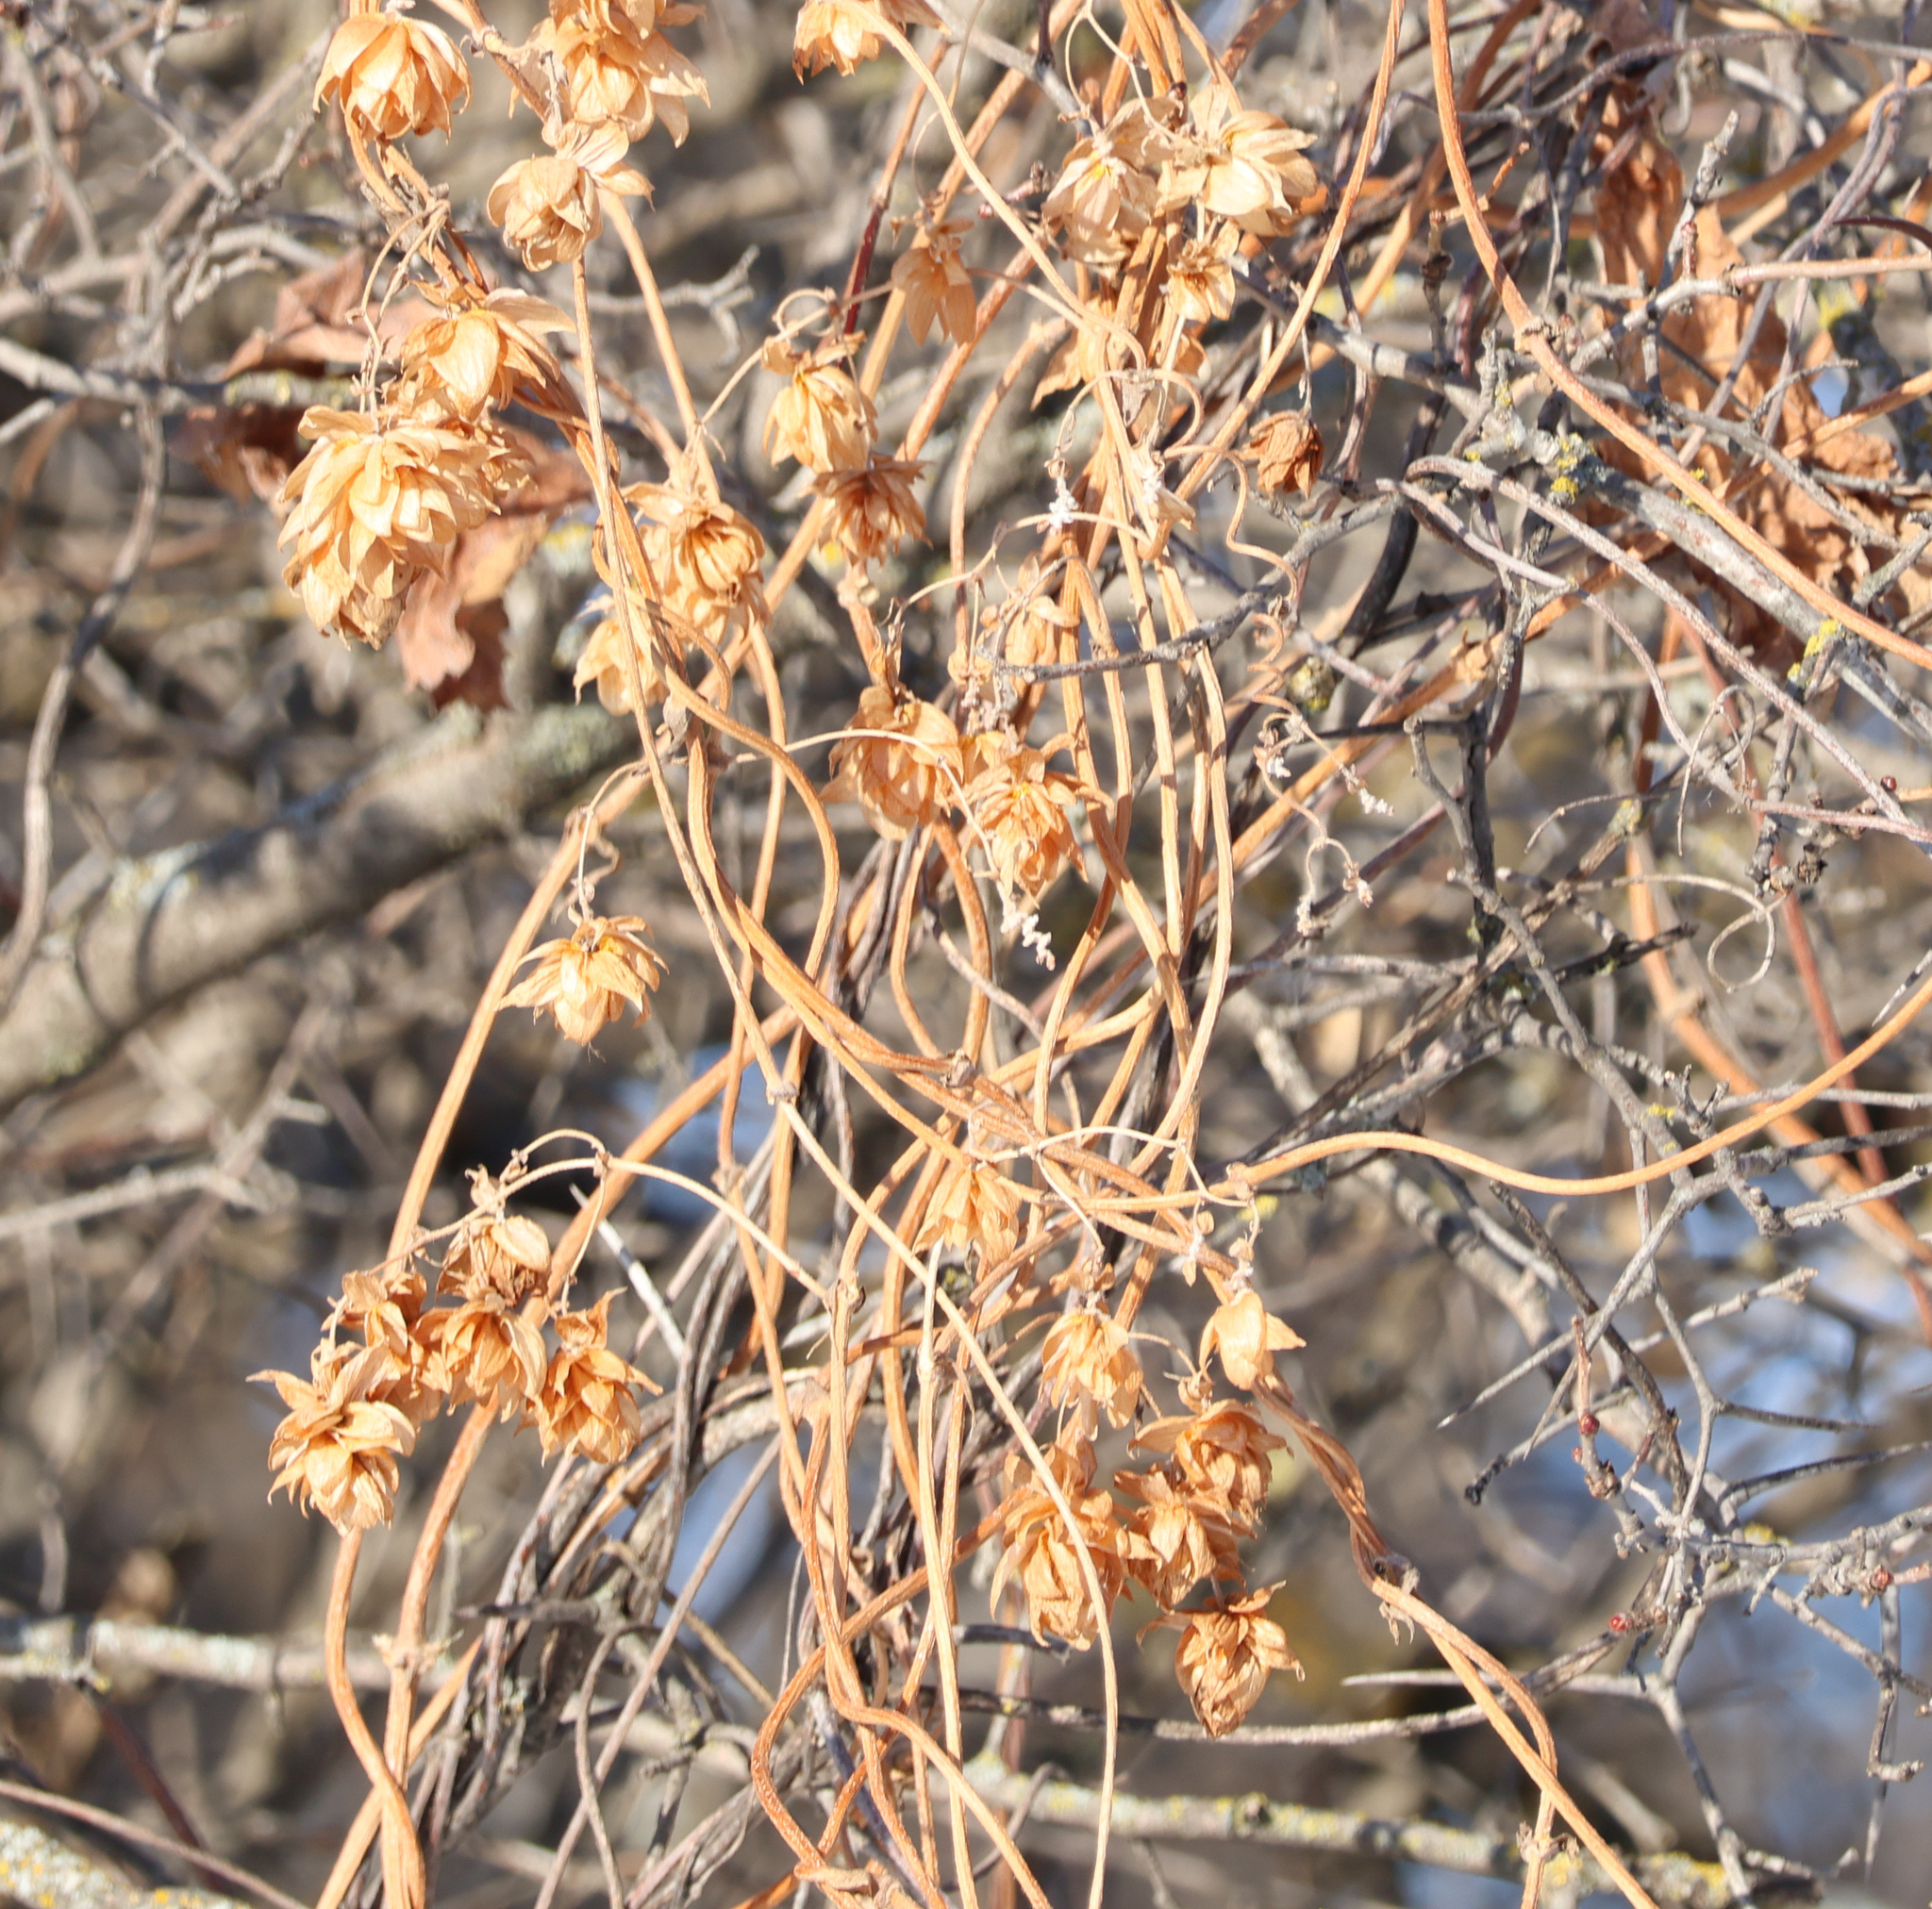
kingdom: Plantae
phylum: Tracheophyta
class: Magnoliopsida
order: Rosales
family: Cannabaceae
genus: Humulus
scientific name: Humulus lupulus
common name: Hop
